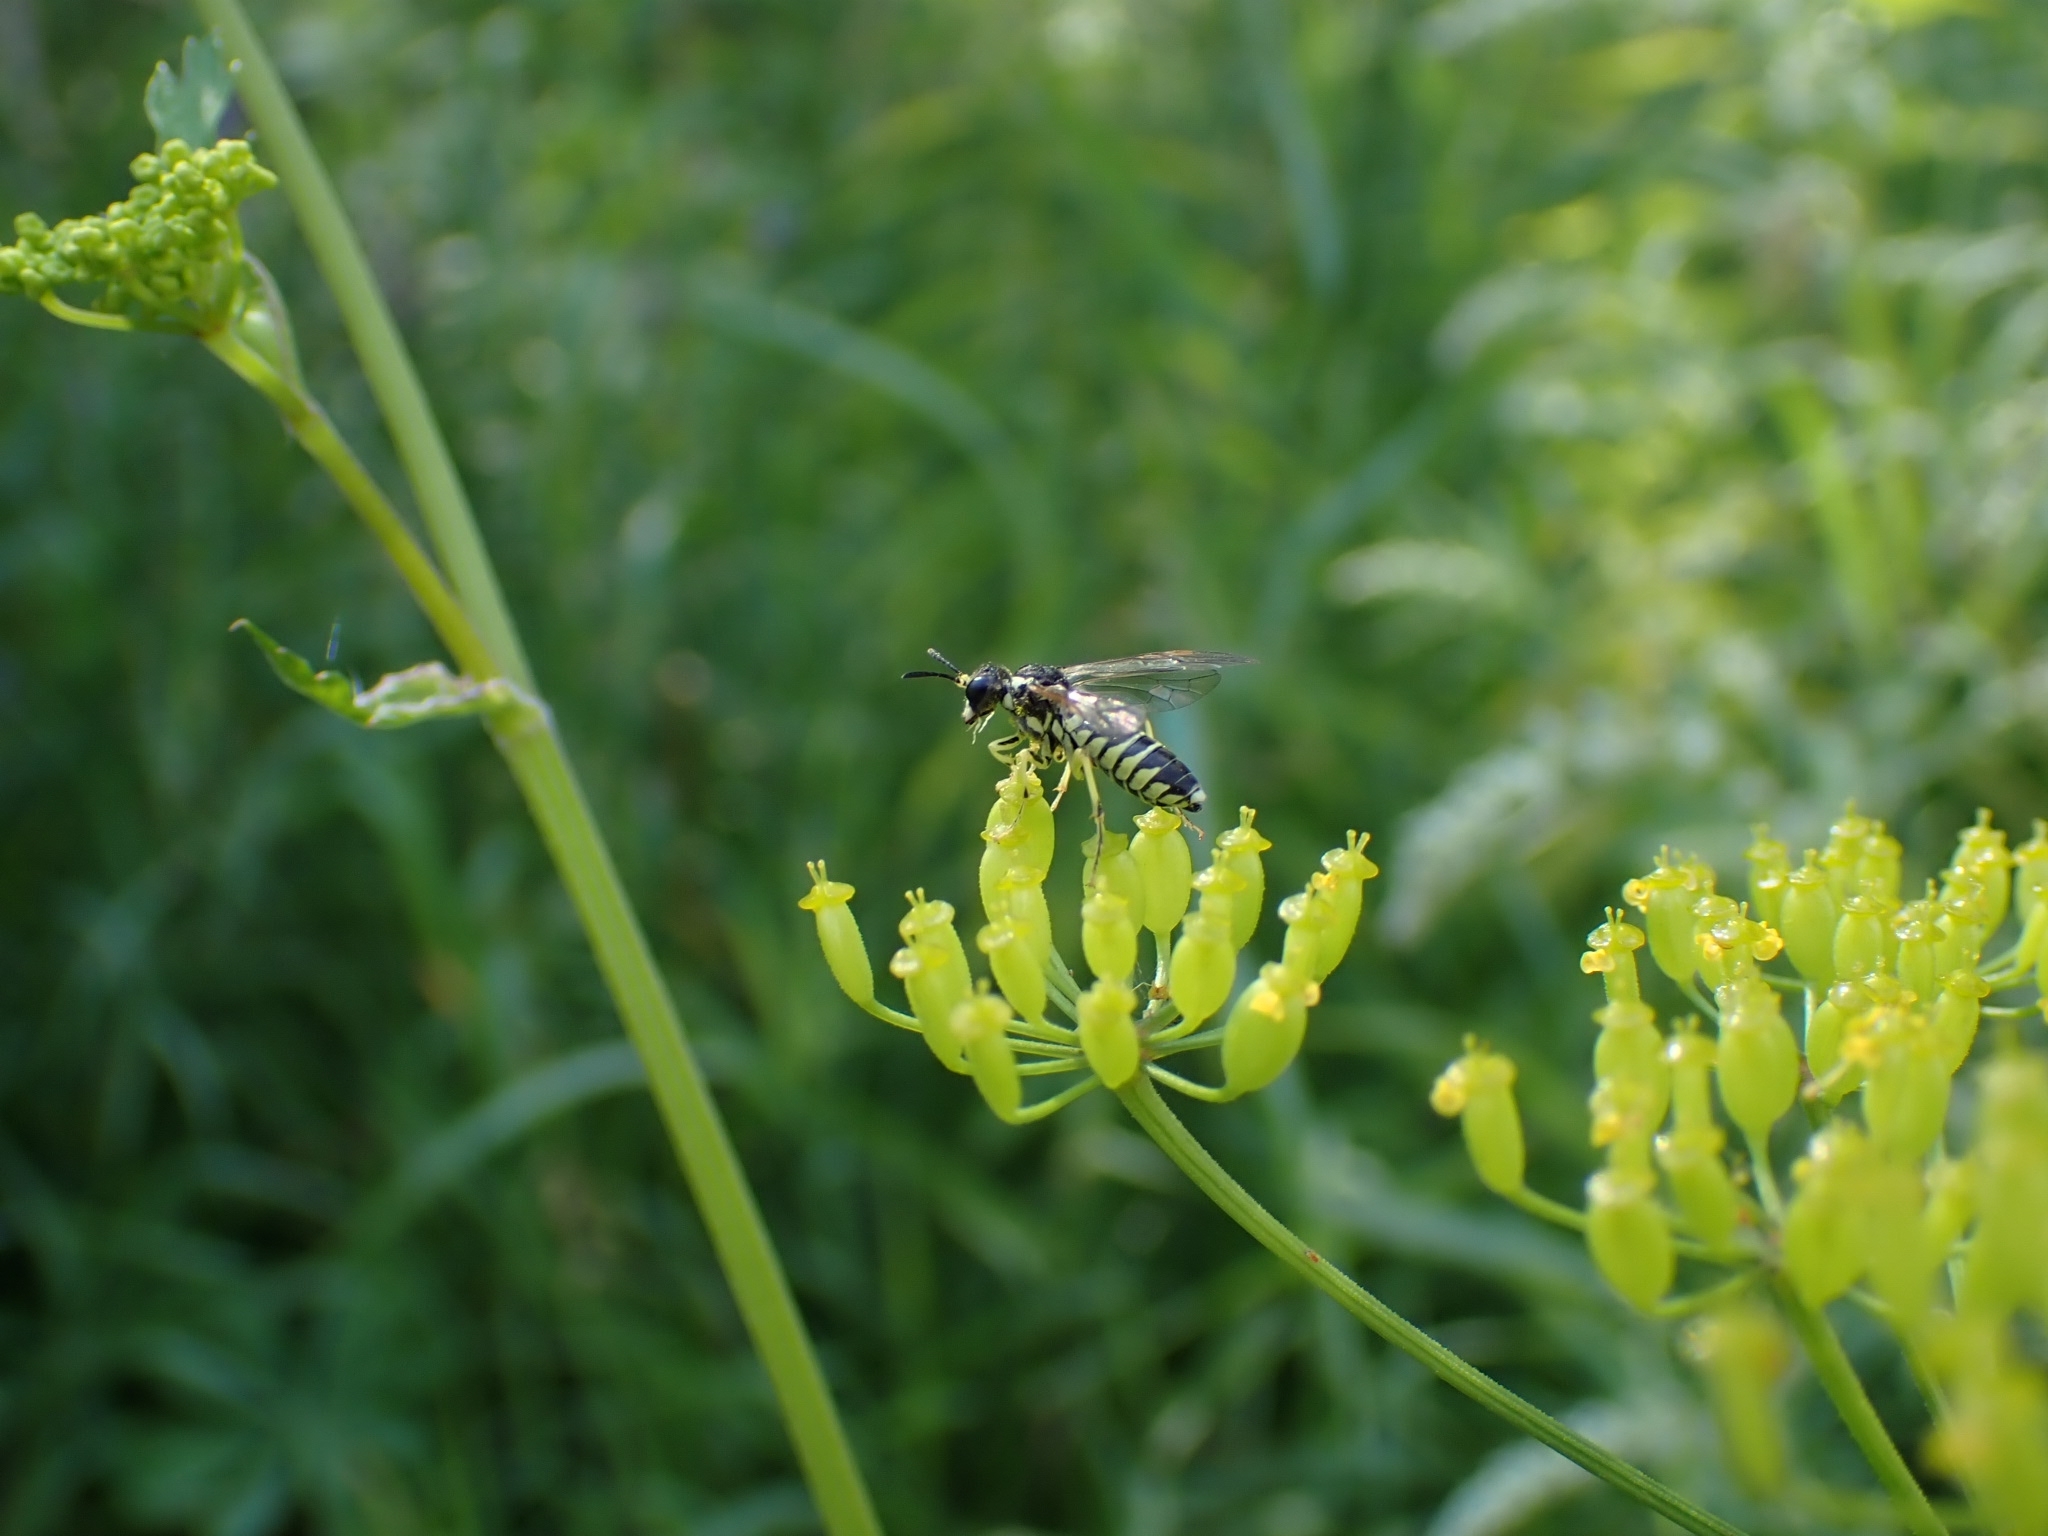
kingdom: Animalia
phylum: Arthropoda
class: Insecta
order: Hymenoptera
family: Tenthredinidae
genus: Tenthredo
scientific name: Tenthredo notha
